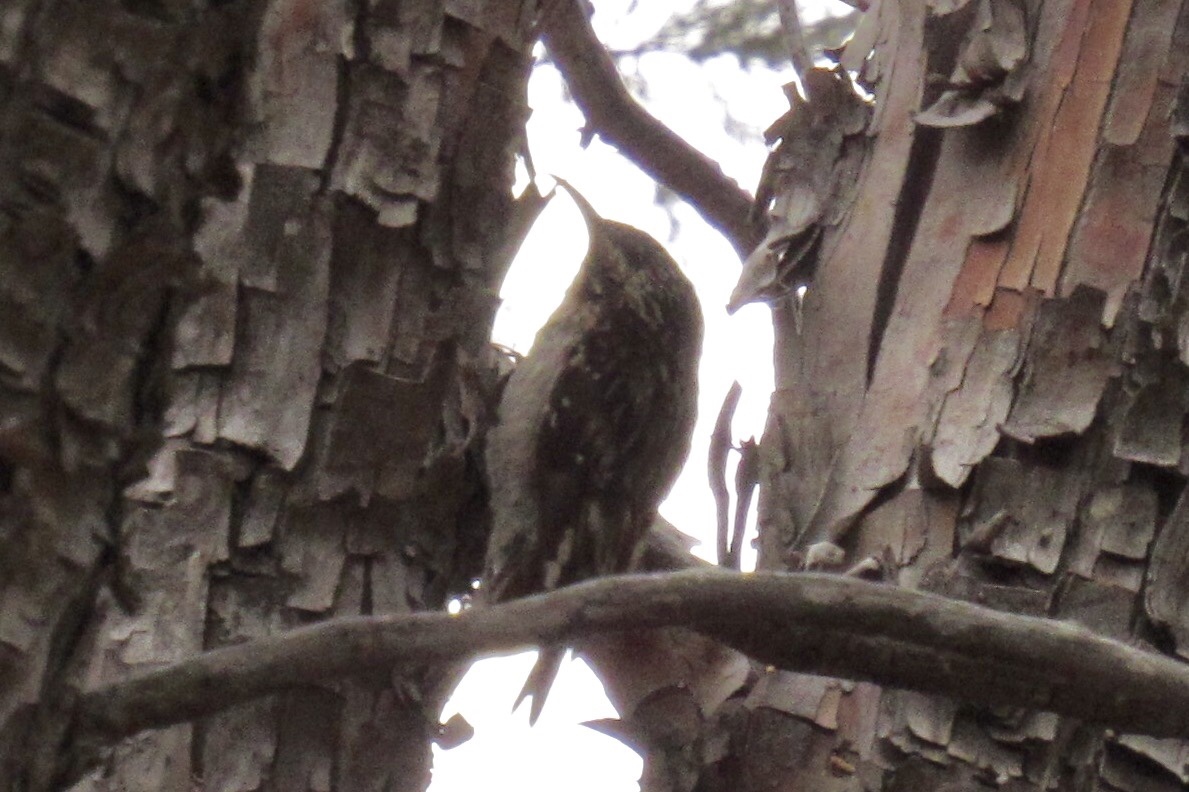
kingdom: Animalia
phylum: Chordata
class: Aves
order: Passeriformes
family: Certhiidae
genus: Certhia
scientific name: Certhia americana
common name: Brown creeper
